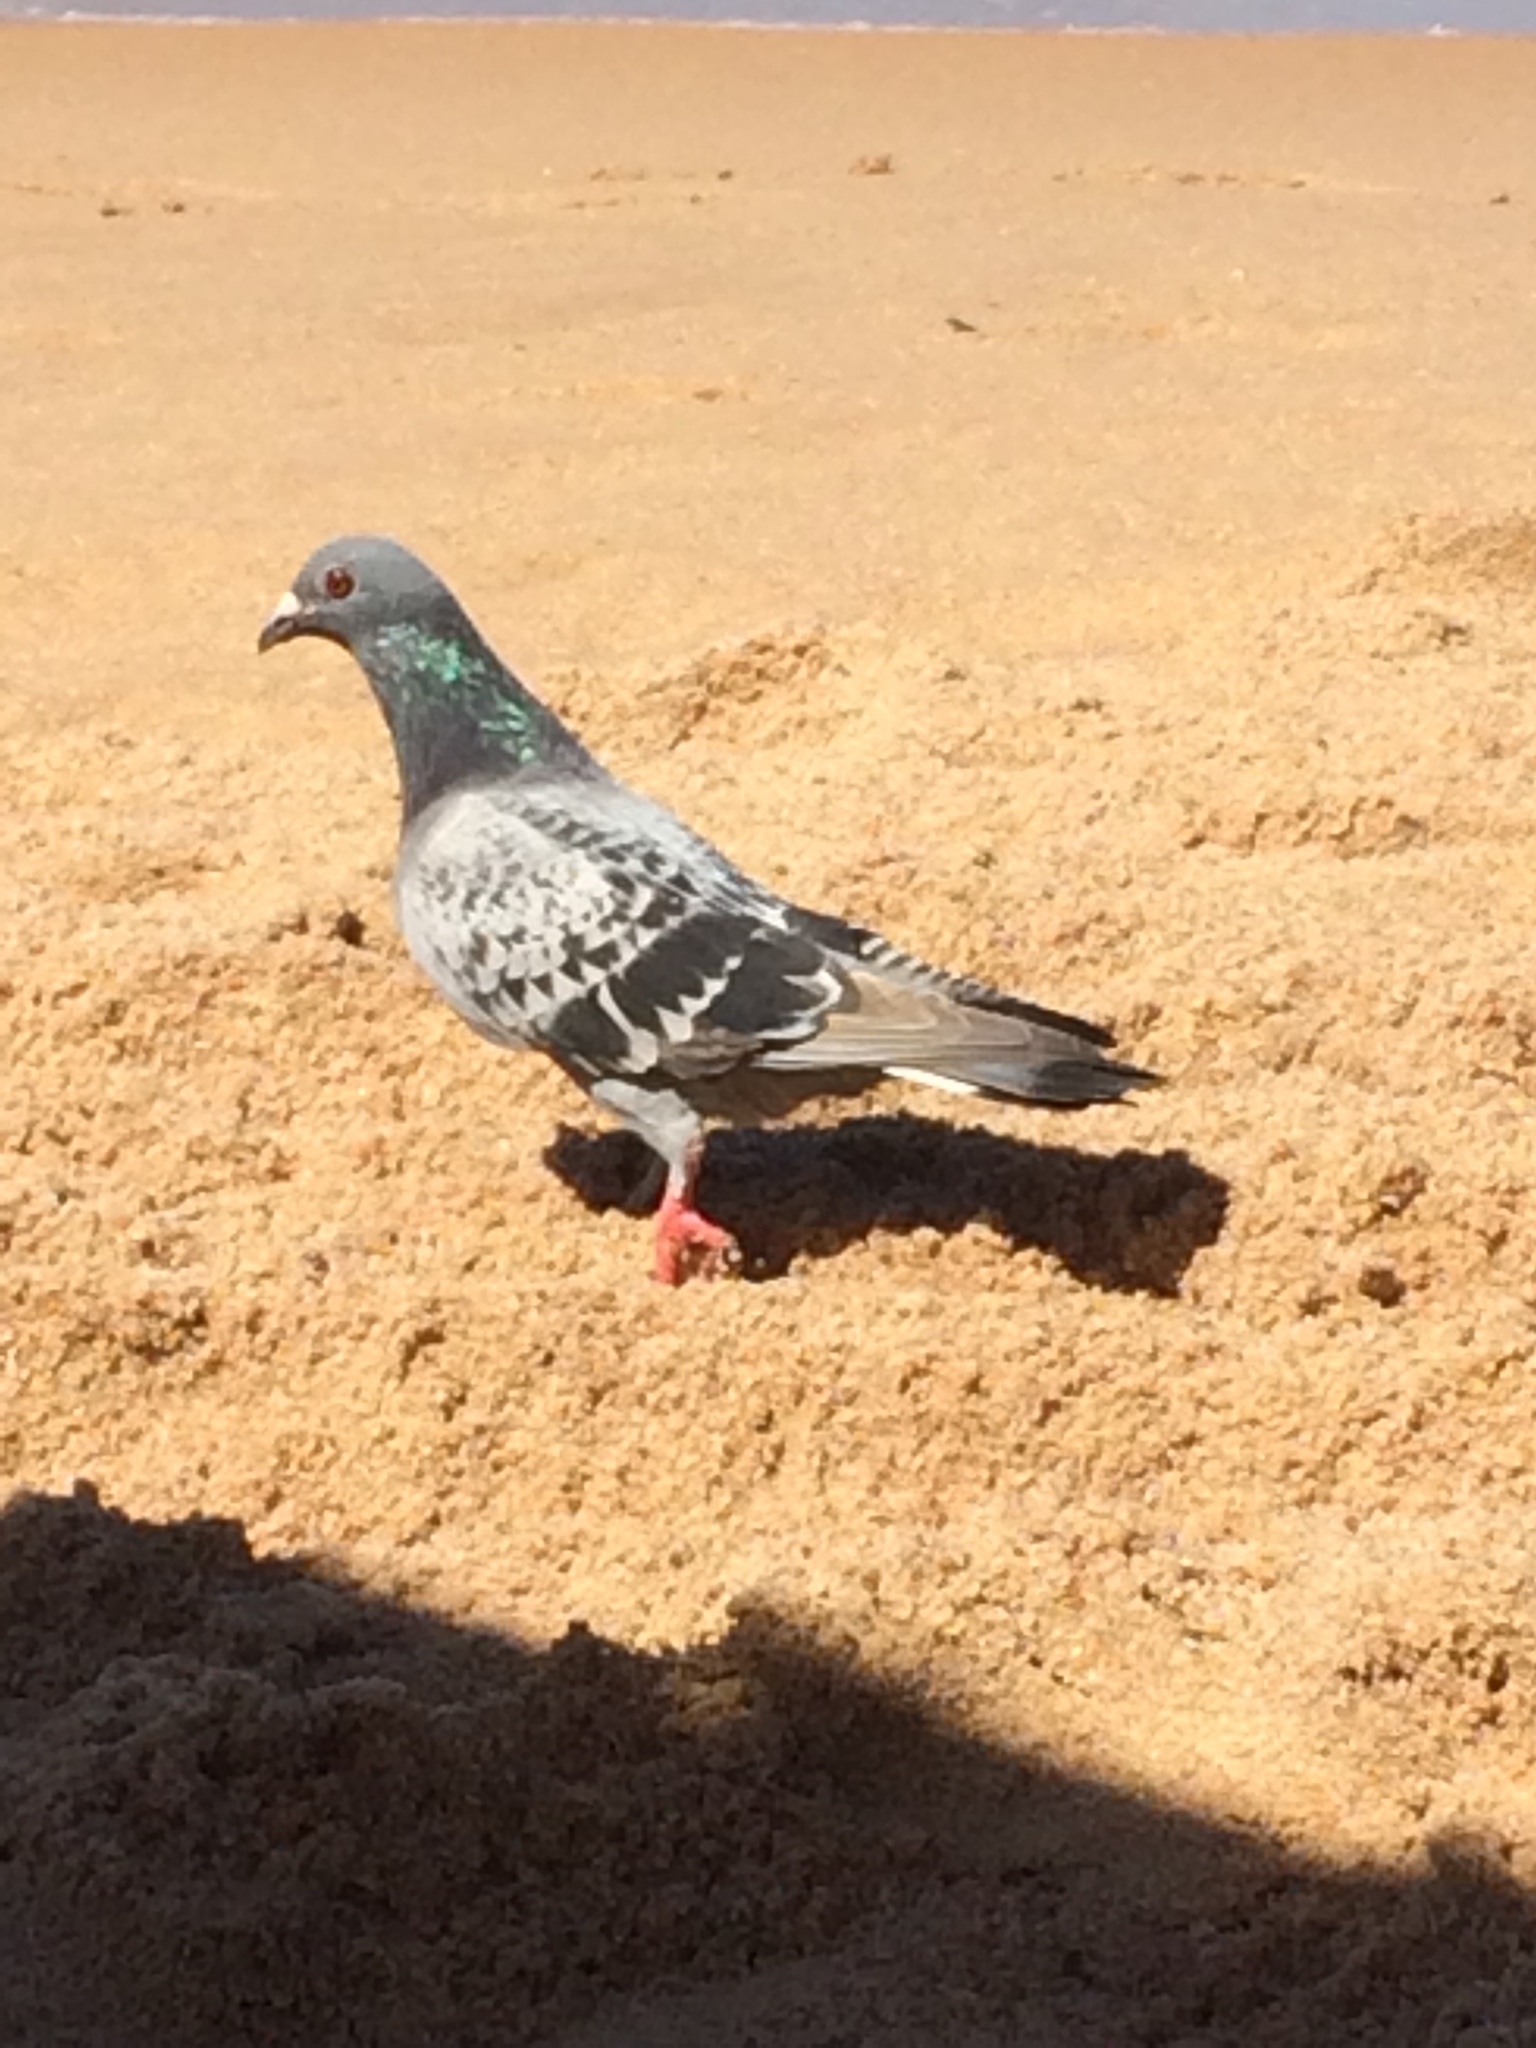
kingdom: Animalia
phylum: Chordata
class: Aves
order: Columbiformes
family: Columbidae
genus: Columba
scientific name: Columba livia
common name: Rock pigeon
